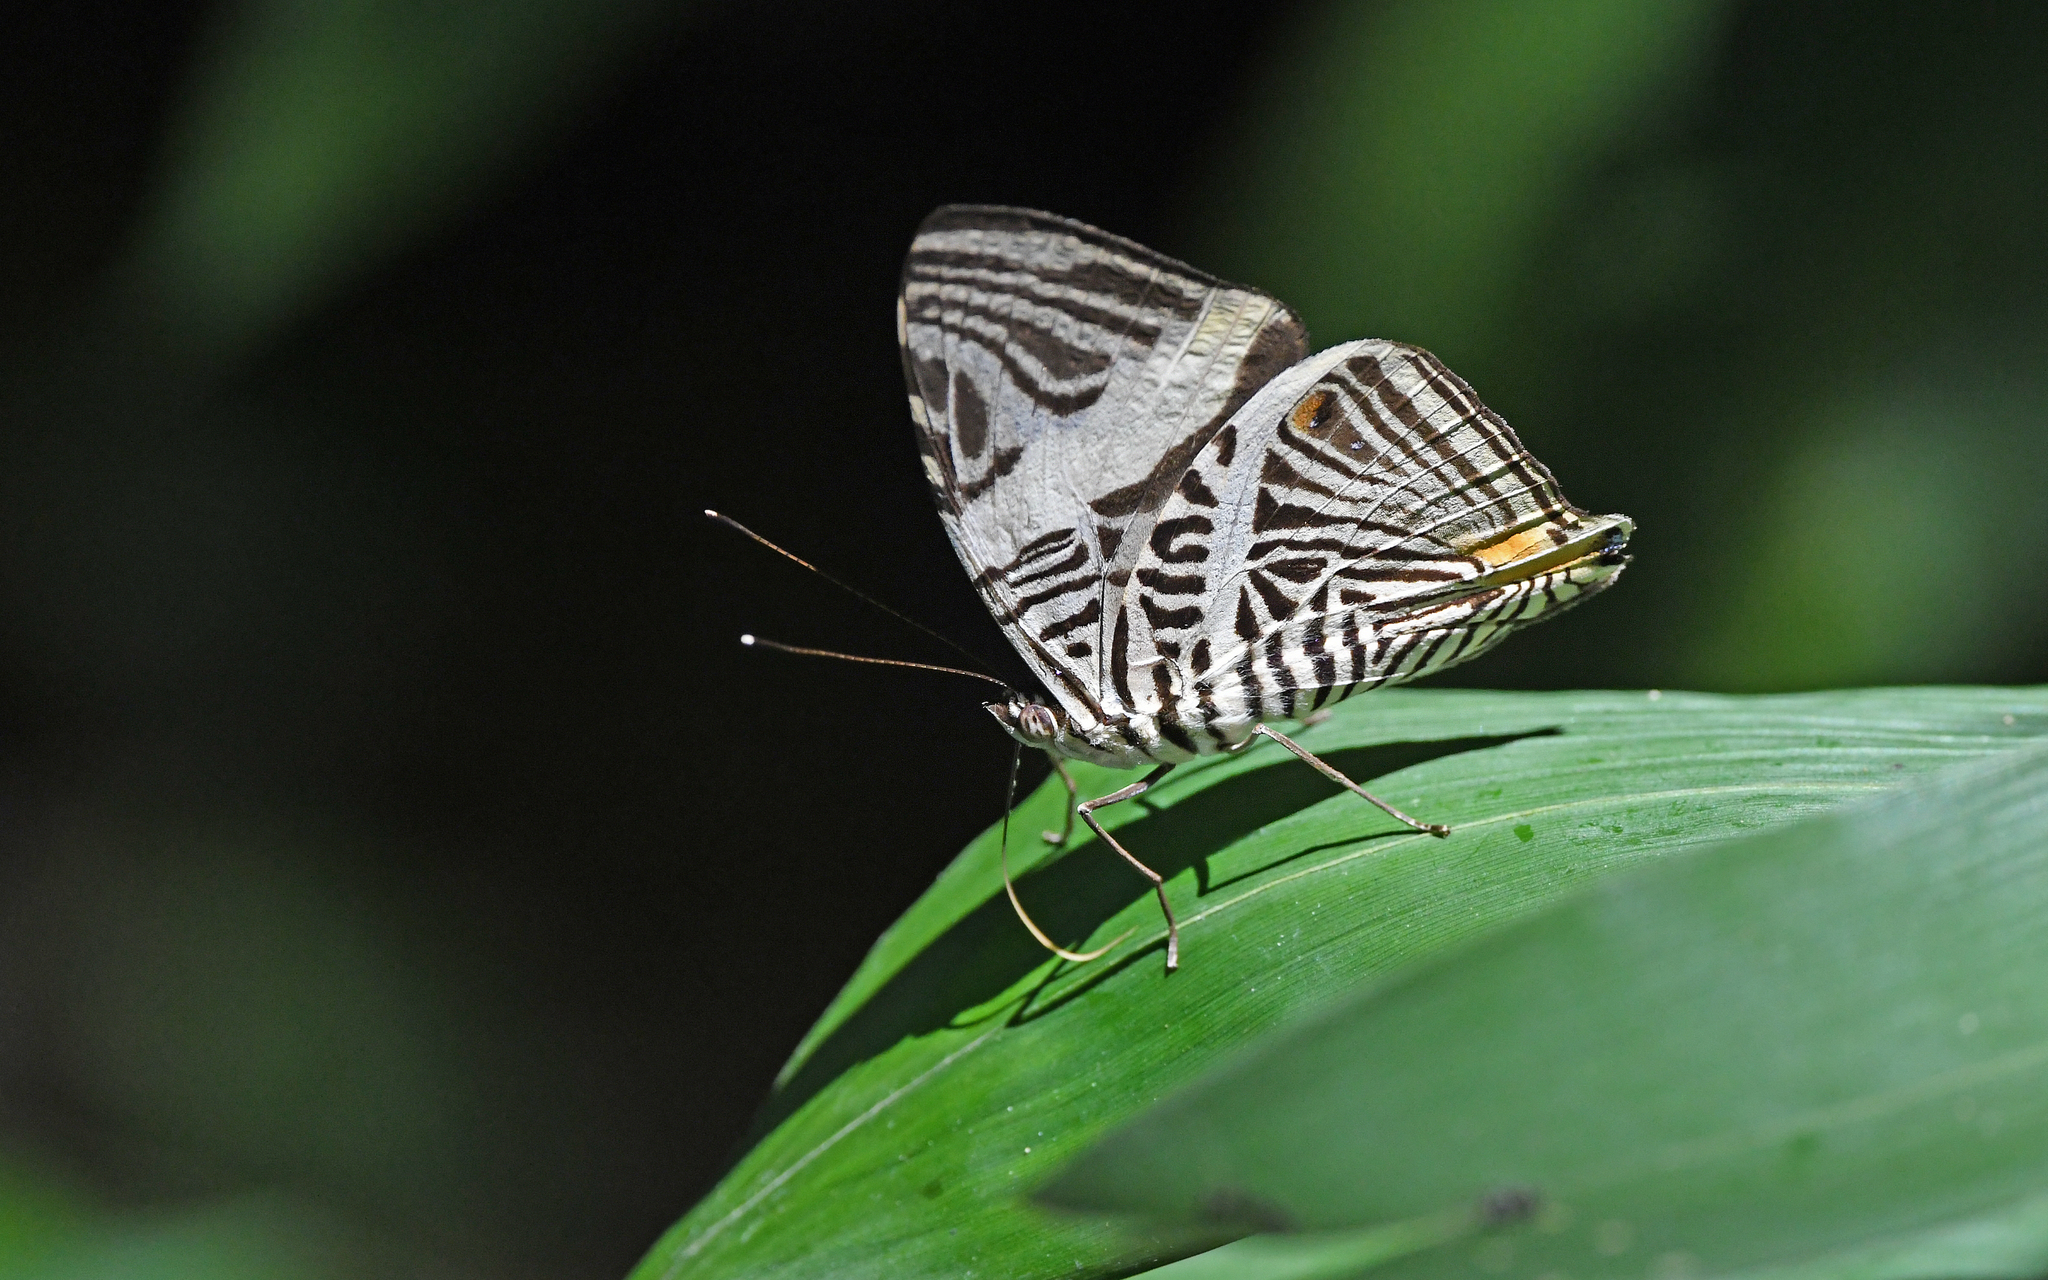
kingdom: Animalia
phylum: Arthropoda
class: Insecta
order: Lepidoptera
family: Nymphalidae
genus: Colobura
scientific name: Colobura dirce
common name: Dirce beauty
